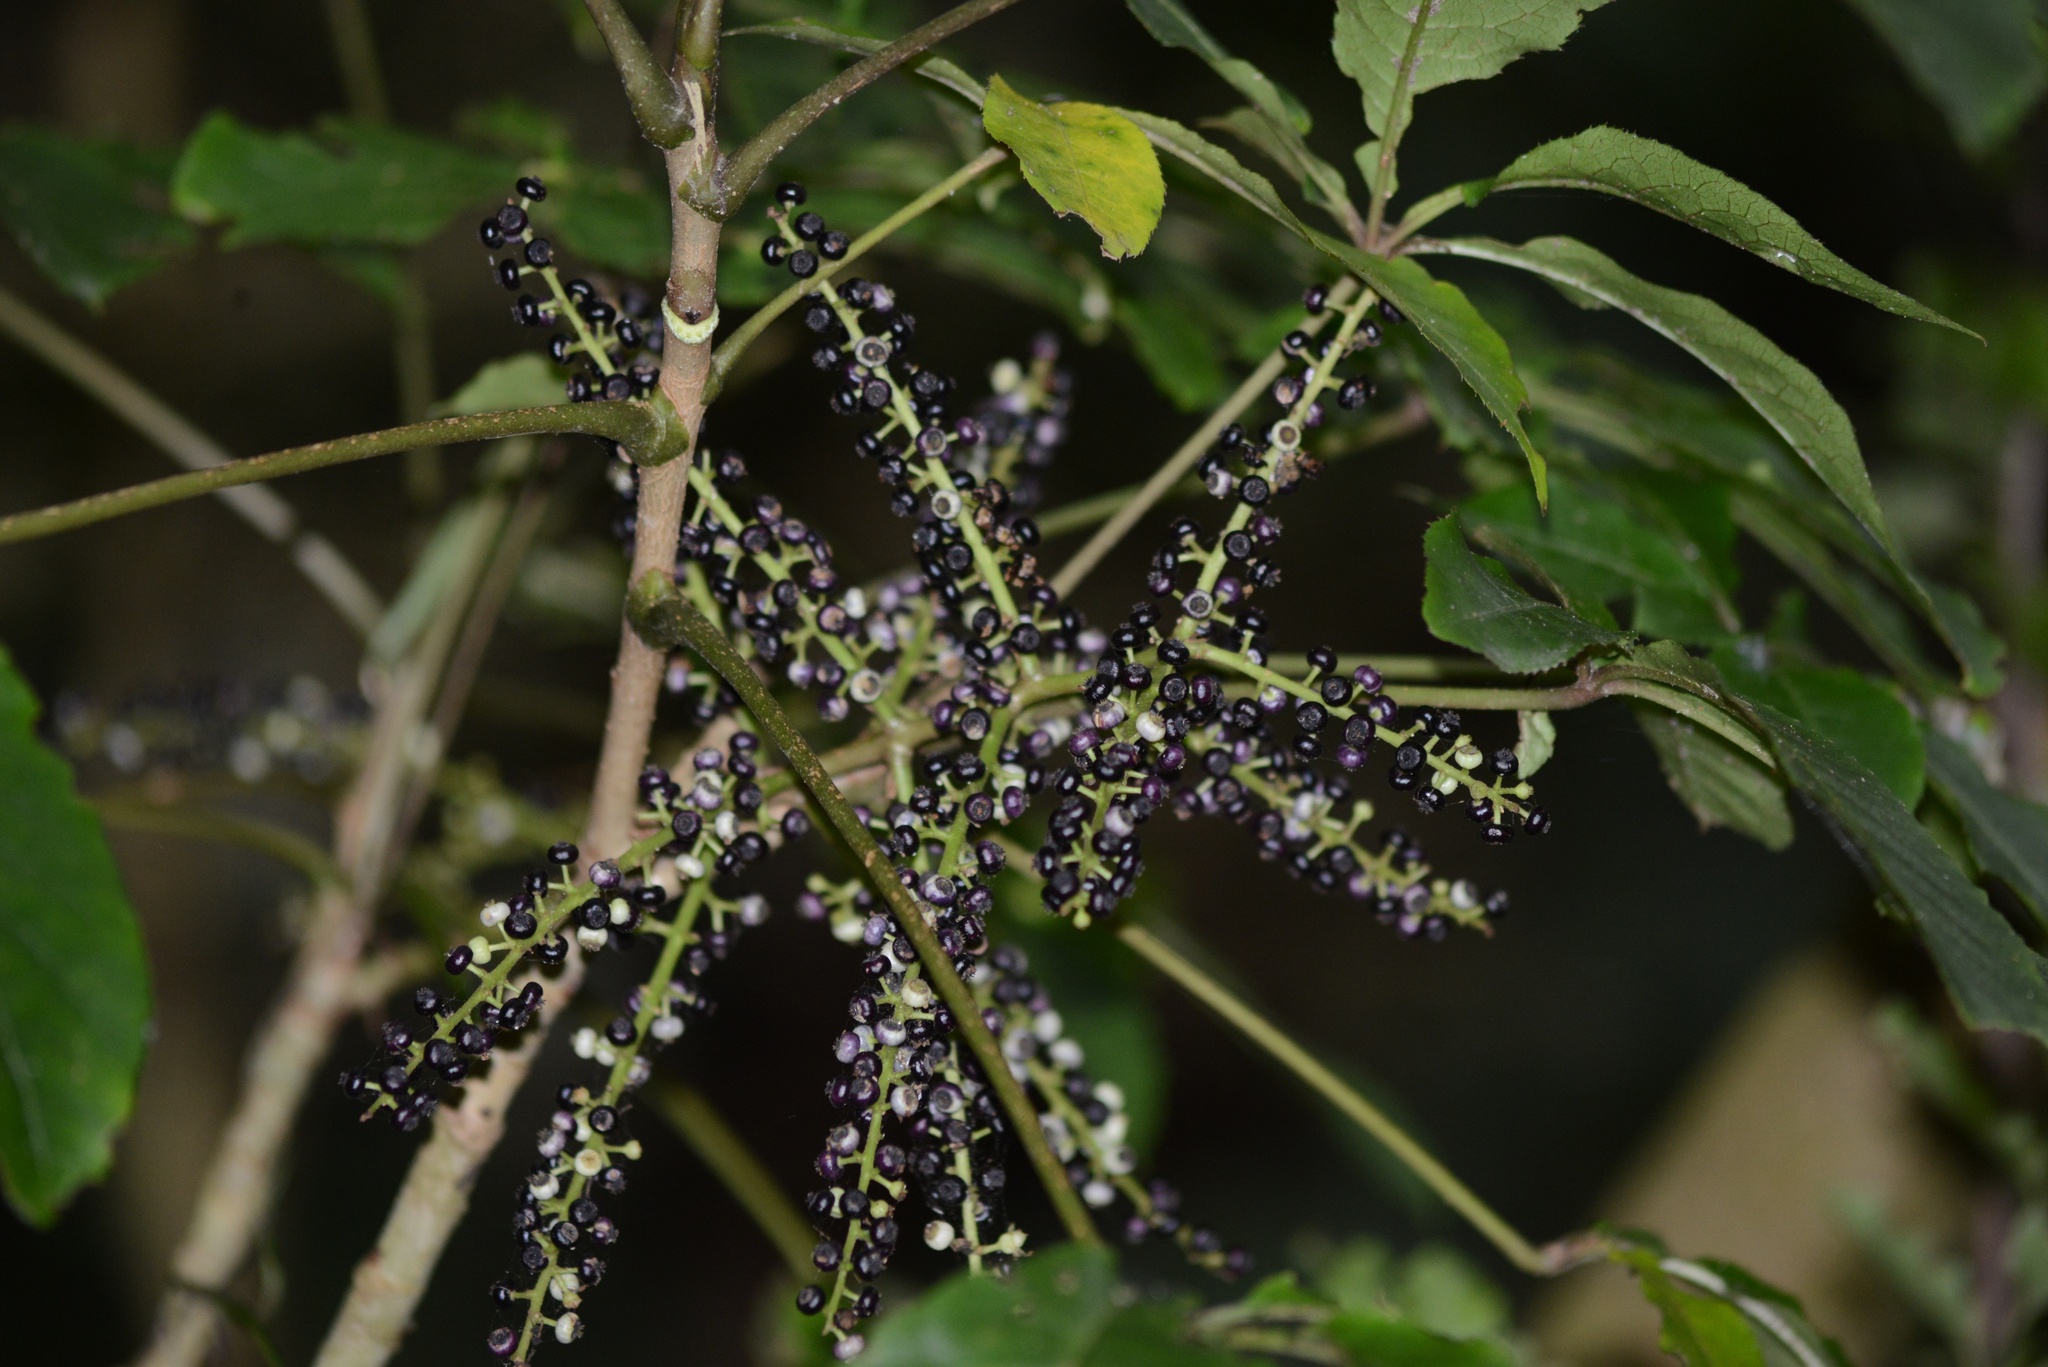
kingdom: Plantae
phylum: Tracheophyta
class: Magnoliopsida
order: Apiales
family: Araliaceae
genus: Schefflera
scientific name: Schefflera digitata
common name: Pate
